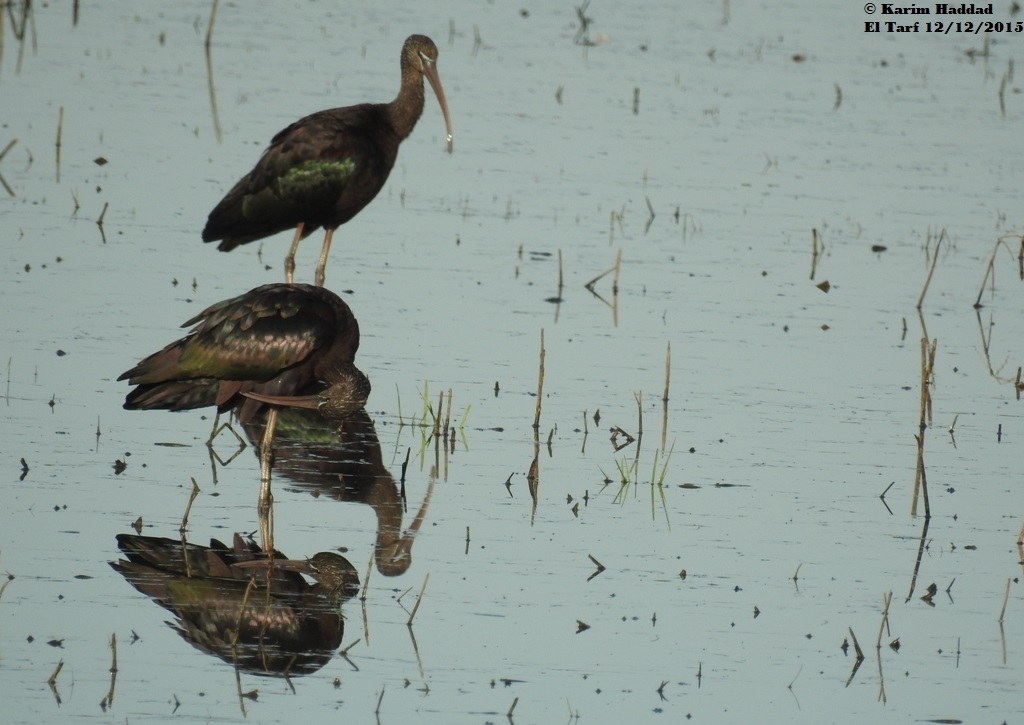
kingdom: Animalia
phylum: Chordata
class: Aves
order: Pelecaniformes
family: Threskiornithidae
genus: Plegadis
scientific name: Plegadis falcinellus
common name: Glossy ibis
